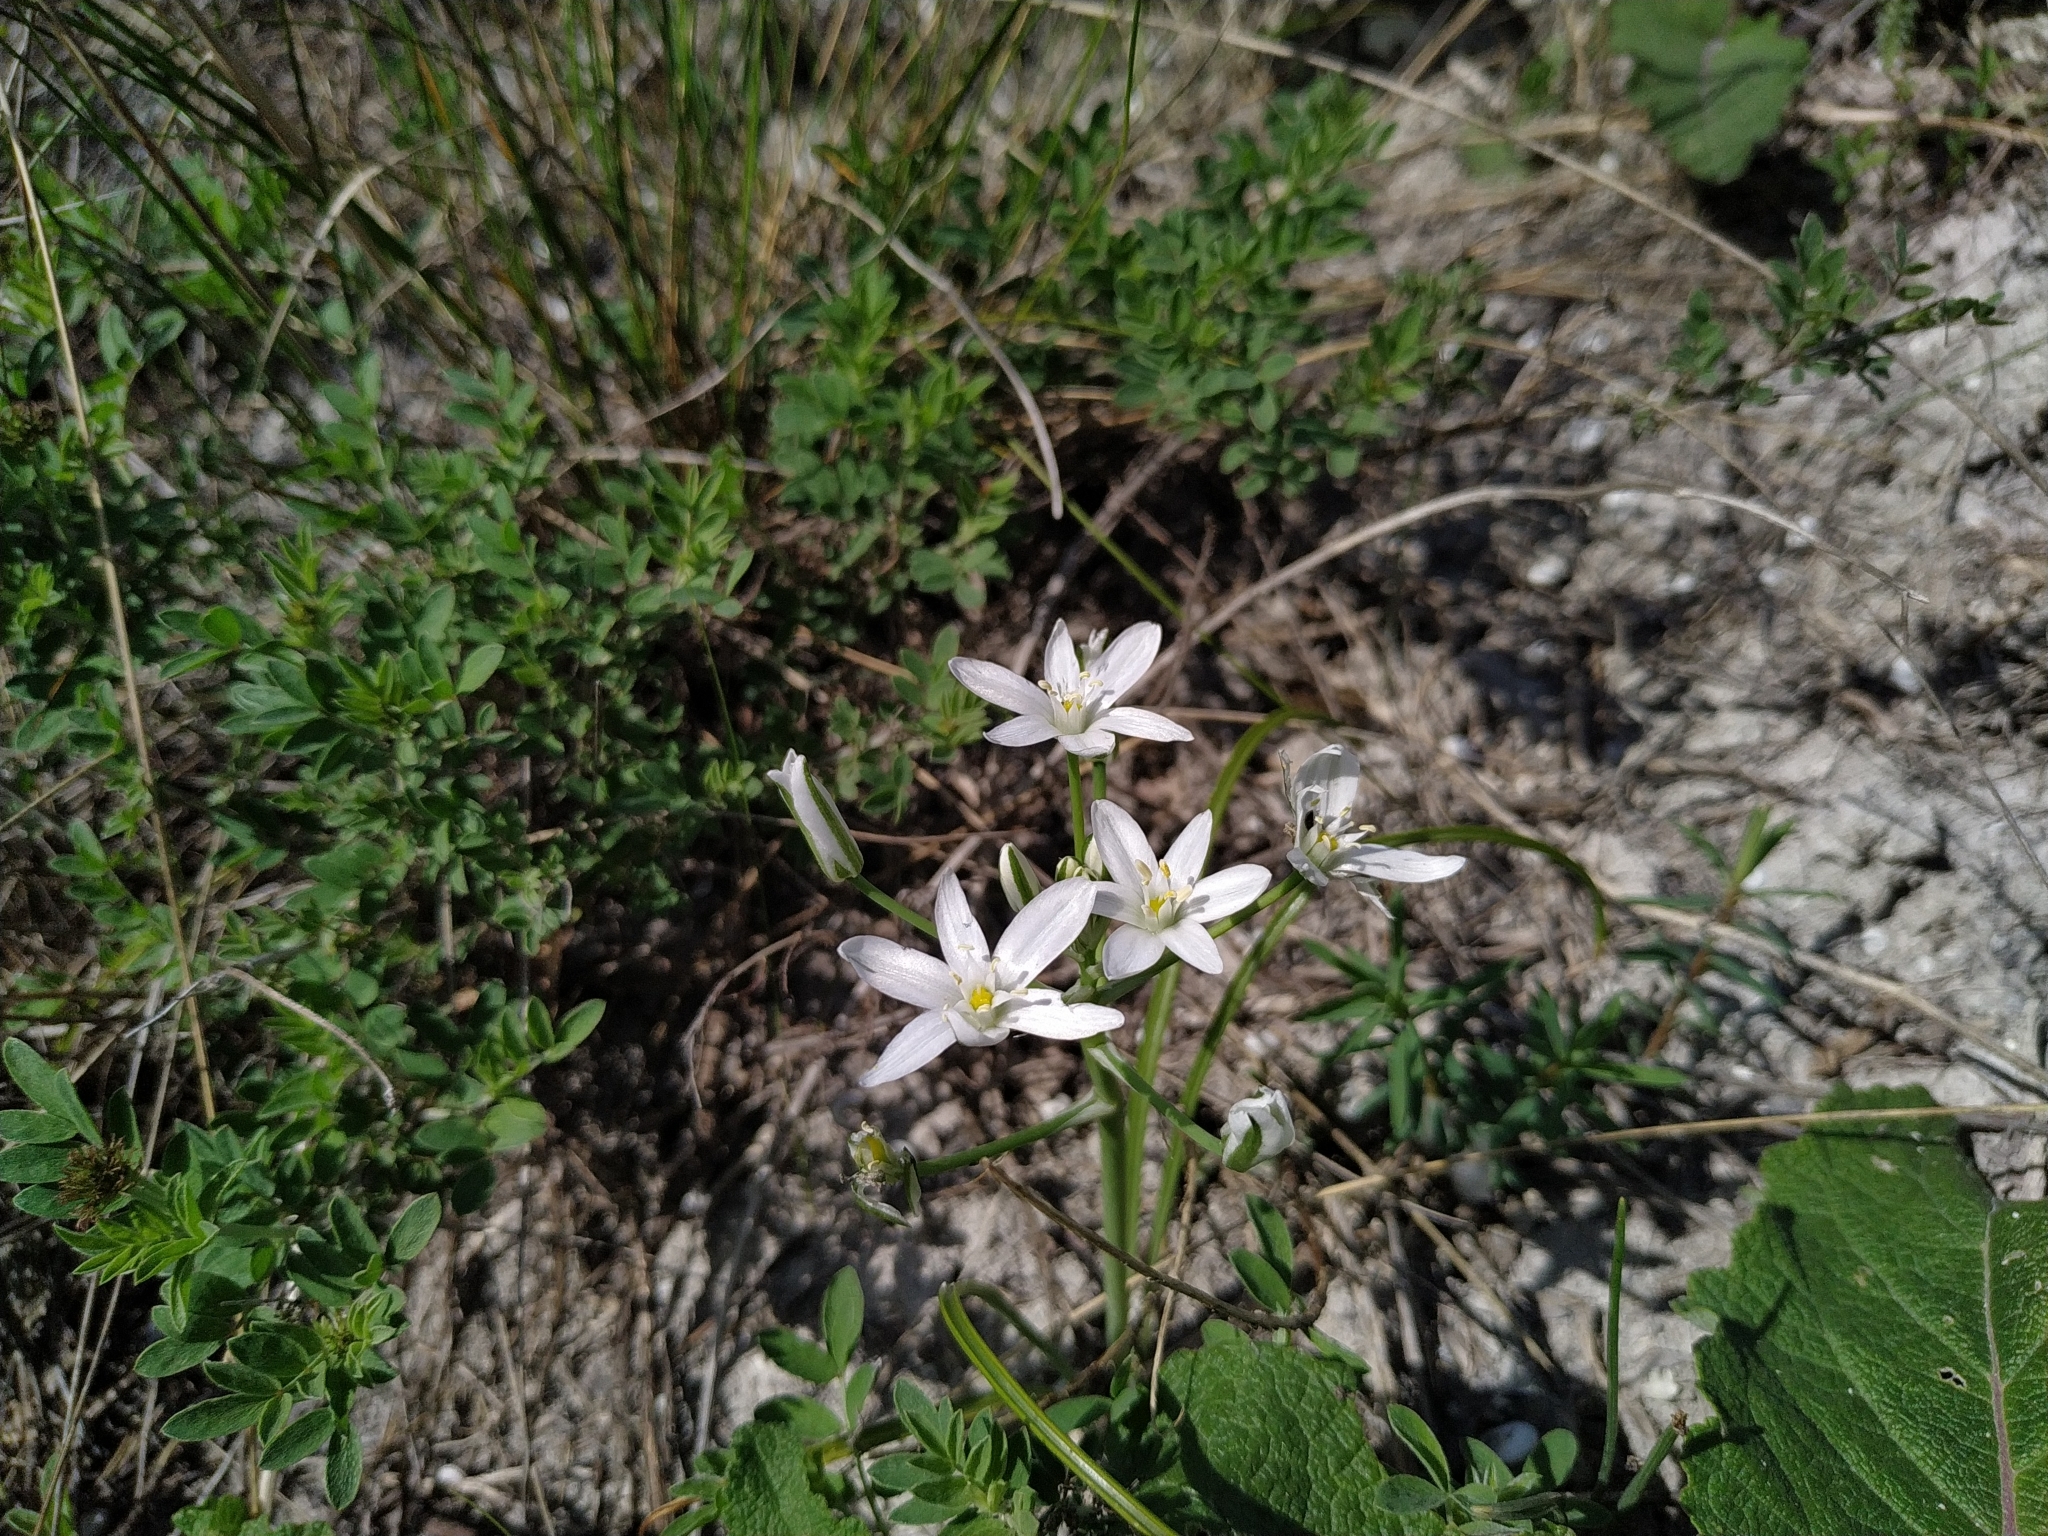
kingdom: Plantae
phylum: Tracheophyta
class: Liliopsida
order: Asparagales
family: Asparagaceae
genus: Ornithogalum
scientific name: Ornithogalum orthophyllum
